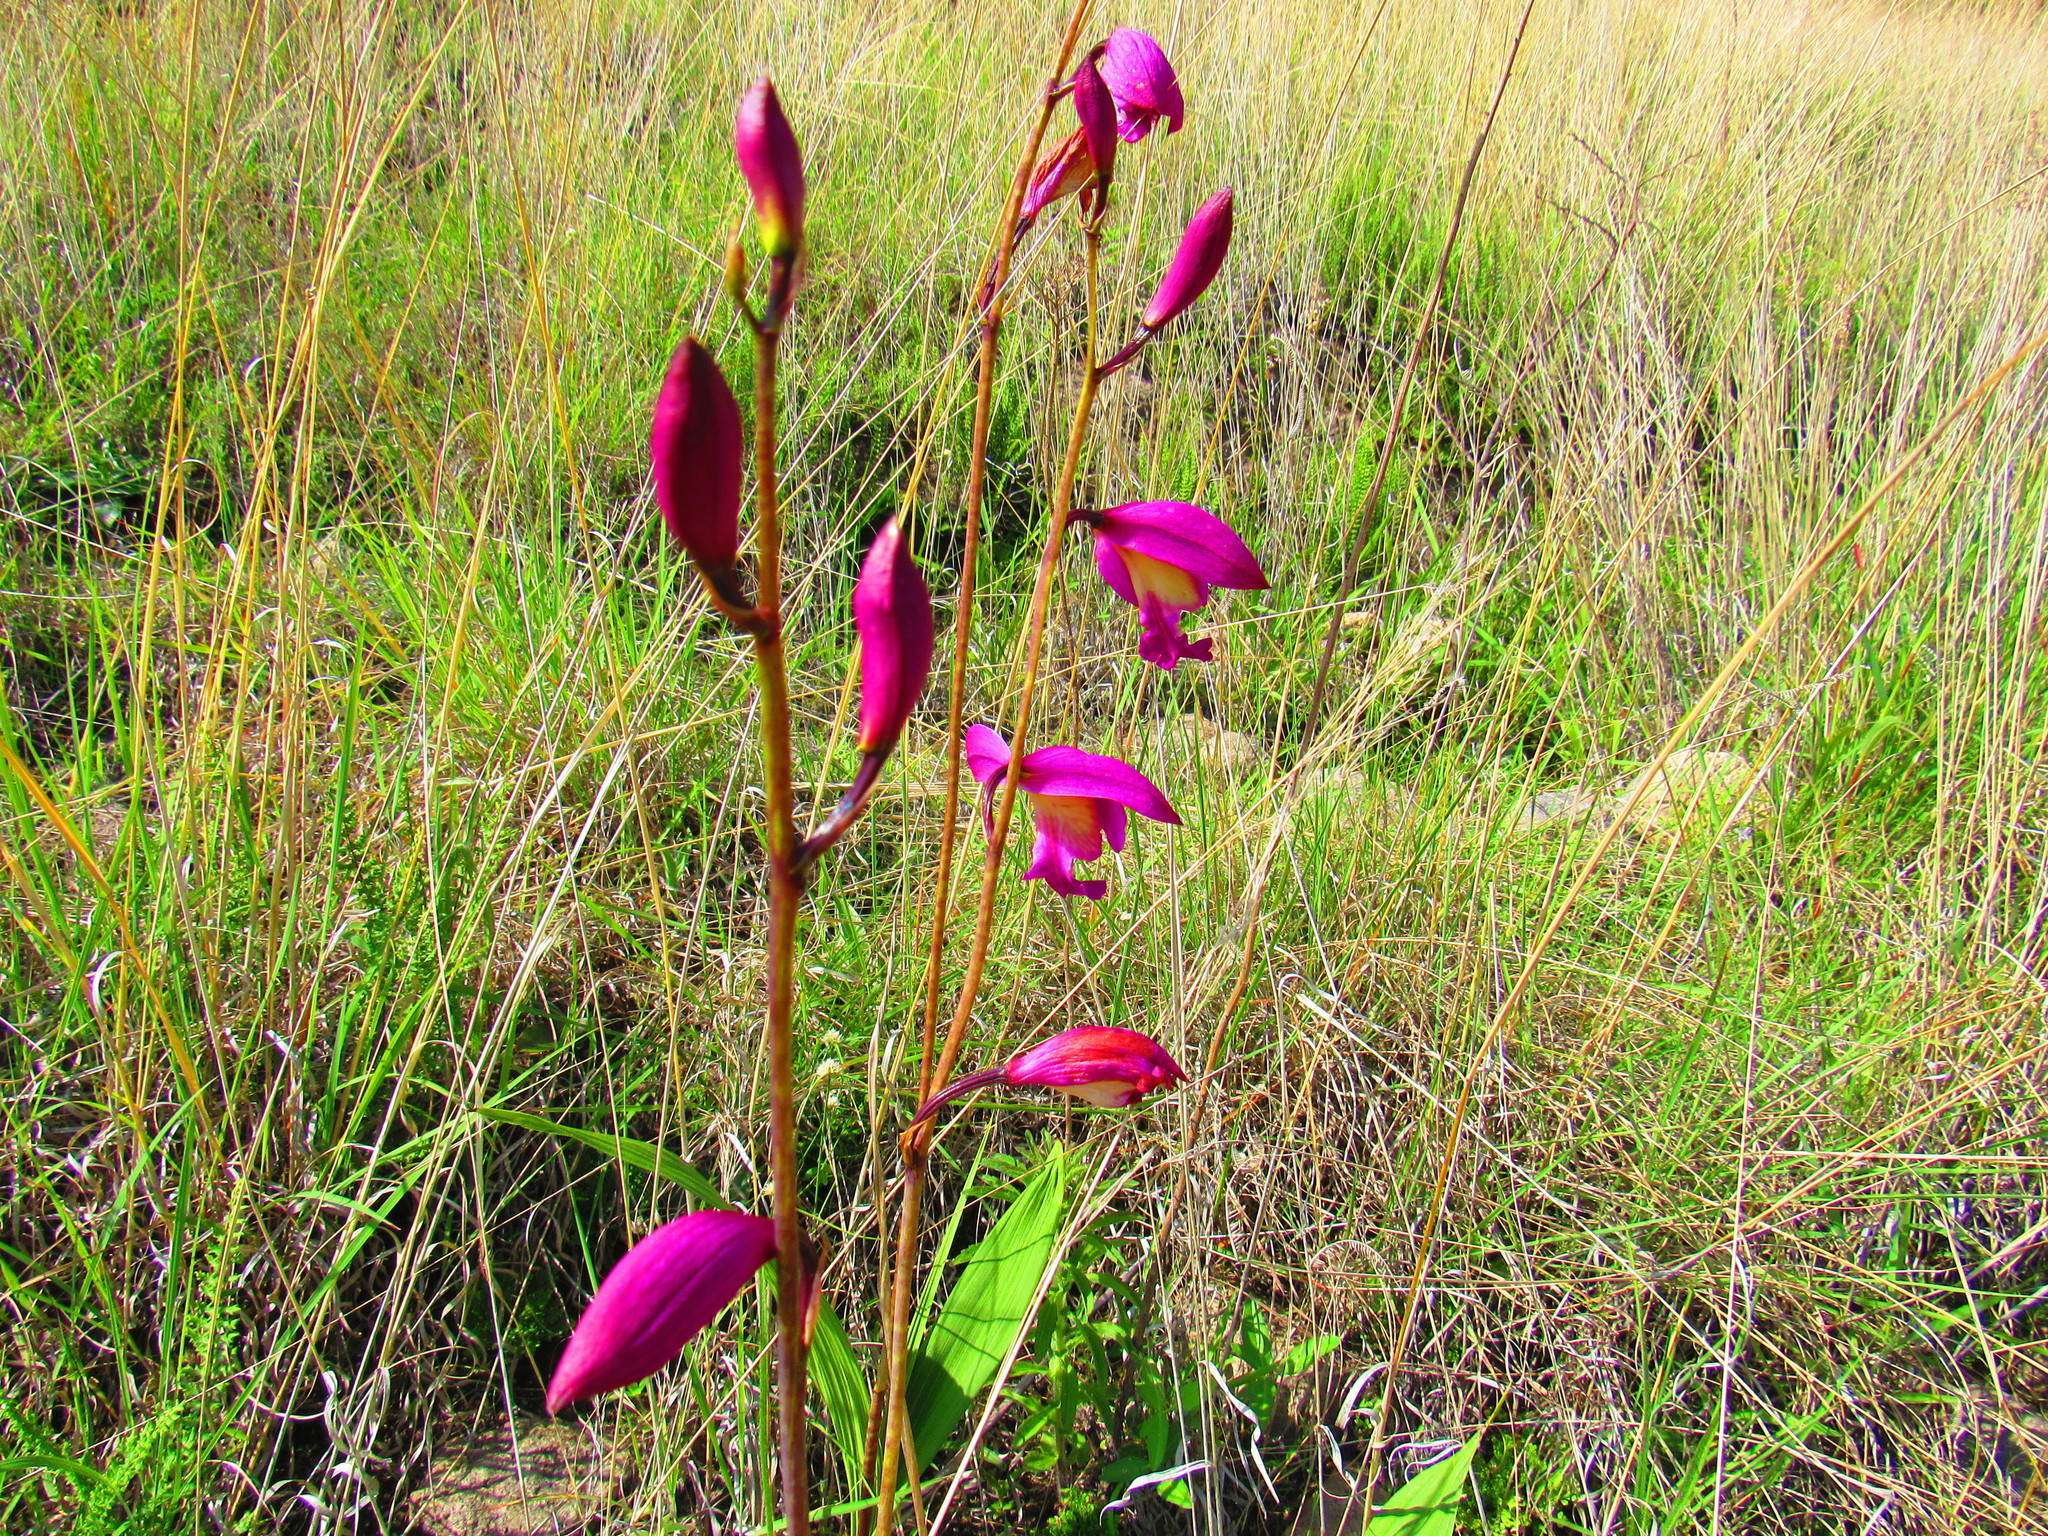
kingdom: Plantae
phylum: Tracheophyta
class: Liliopsida
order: Asparagales
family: Orchidaceae
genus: Bletia
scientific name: Bletia campanulata
